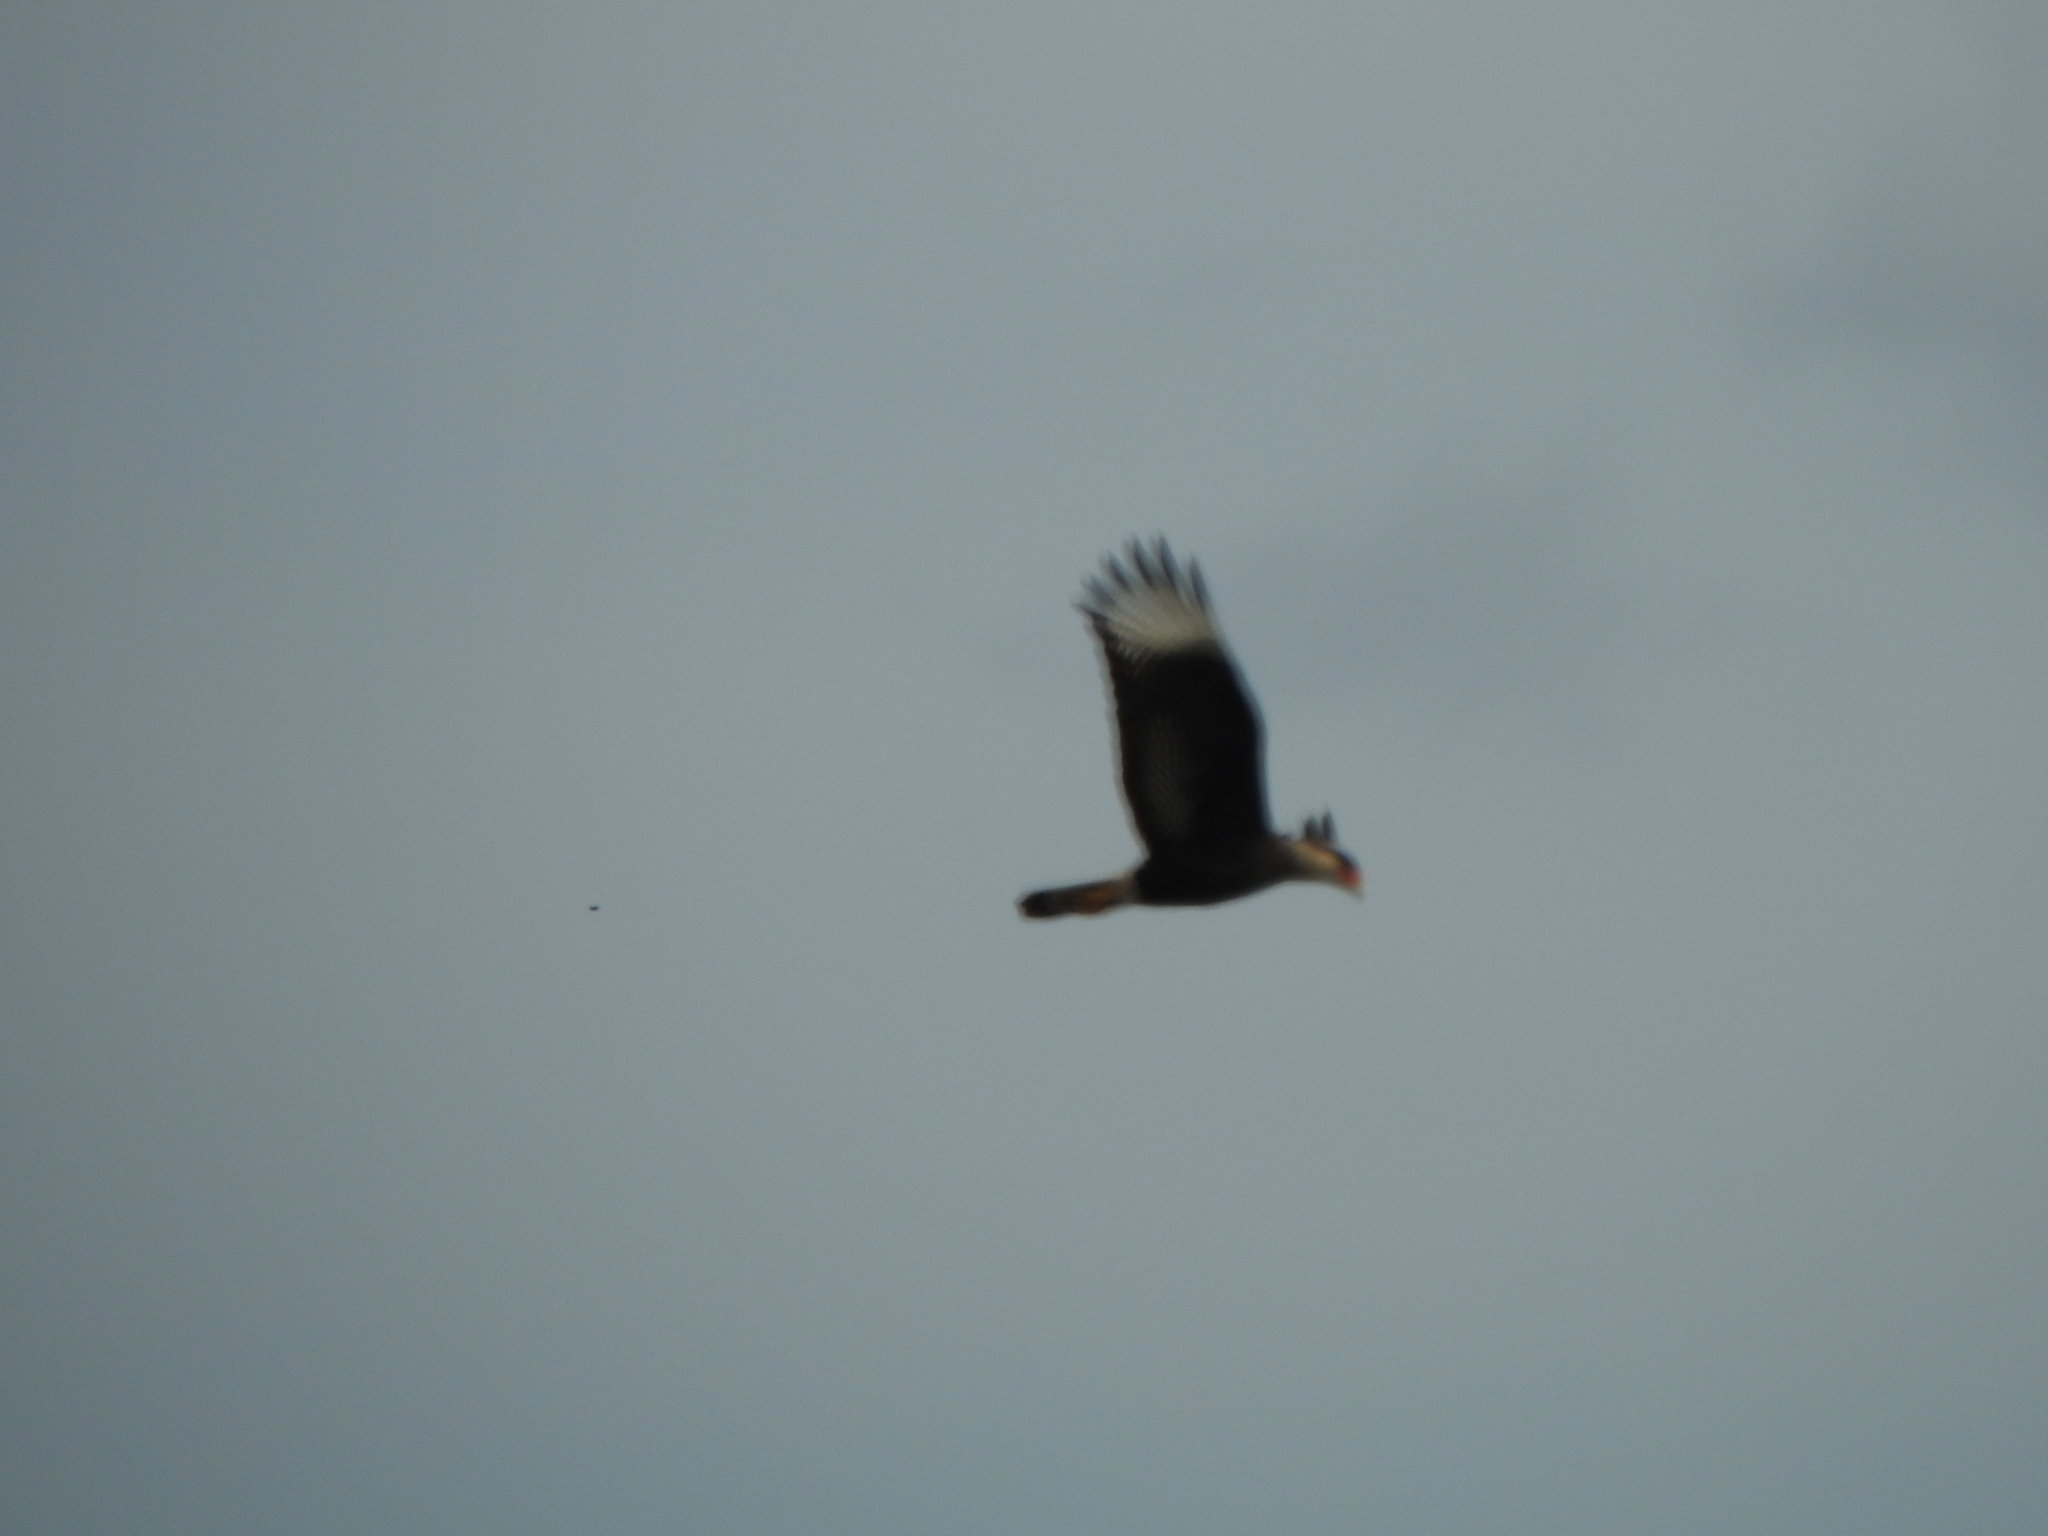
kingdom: Animalia
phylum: Chordata
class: Aves
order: Falconiformes
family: Falconidae
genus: Caracara
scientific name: Caracara plancus
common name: Southern caracara
